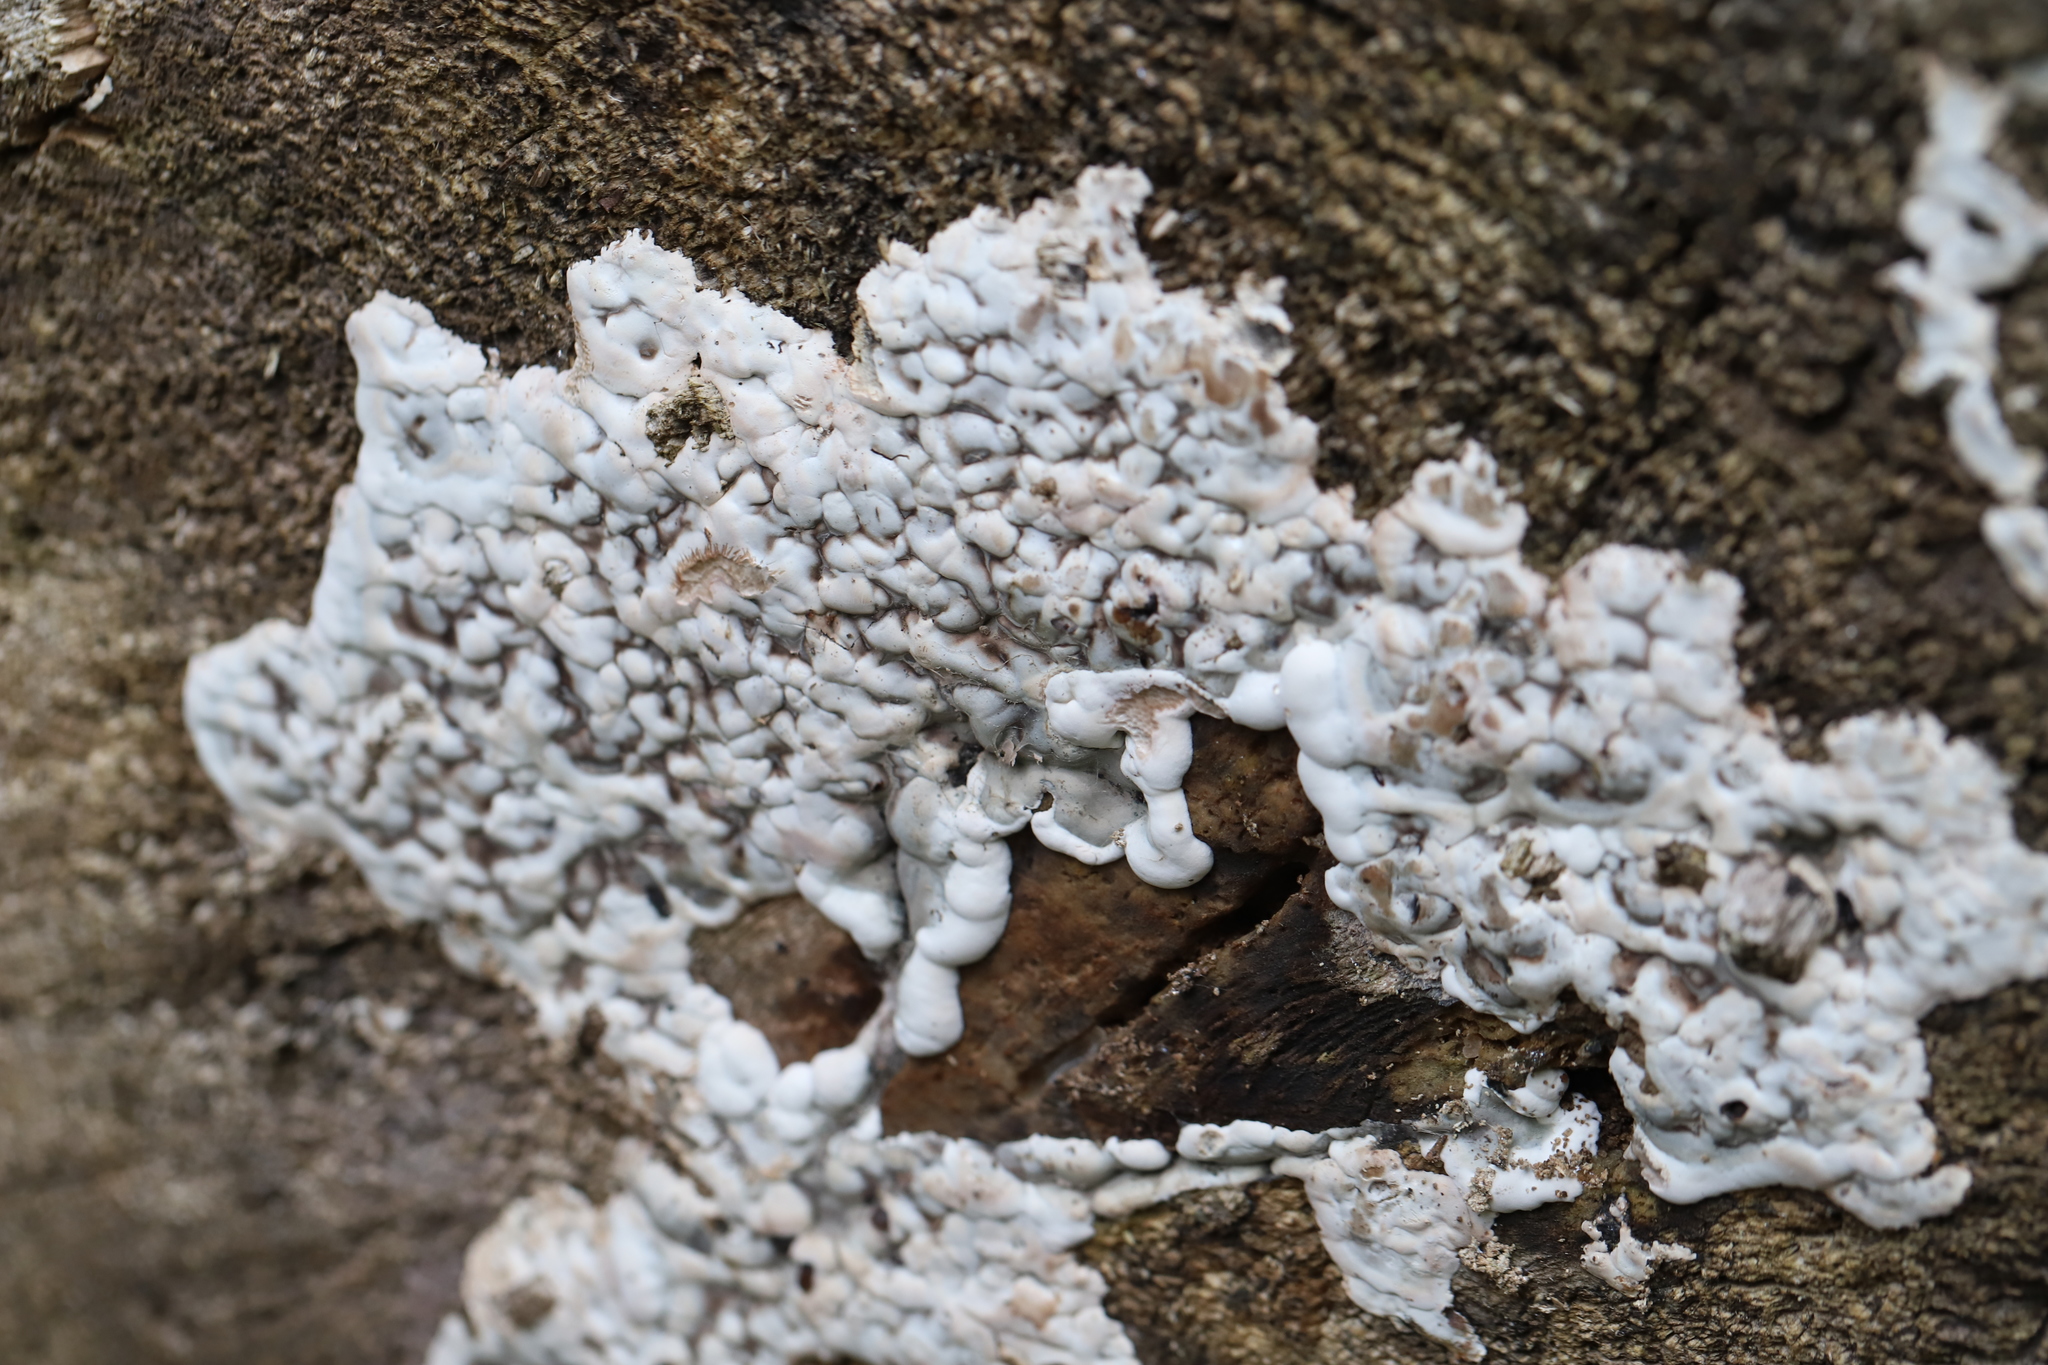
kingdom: Fungi
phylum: Ascomycota
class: Sordariomycetes
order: Xylariales
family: Xylariaceae
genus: Kretzschmaria
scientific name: Kretzschmaria deusta
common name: Brittle cinder
